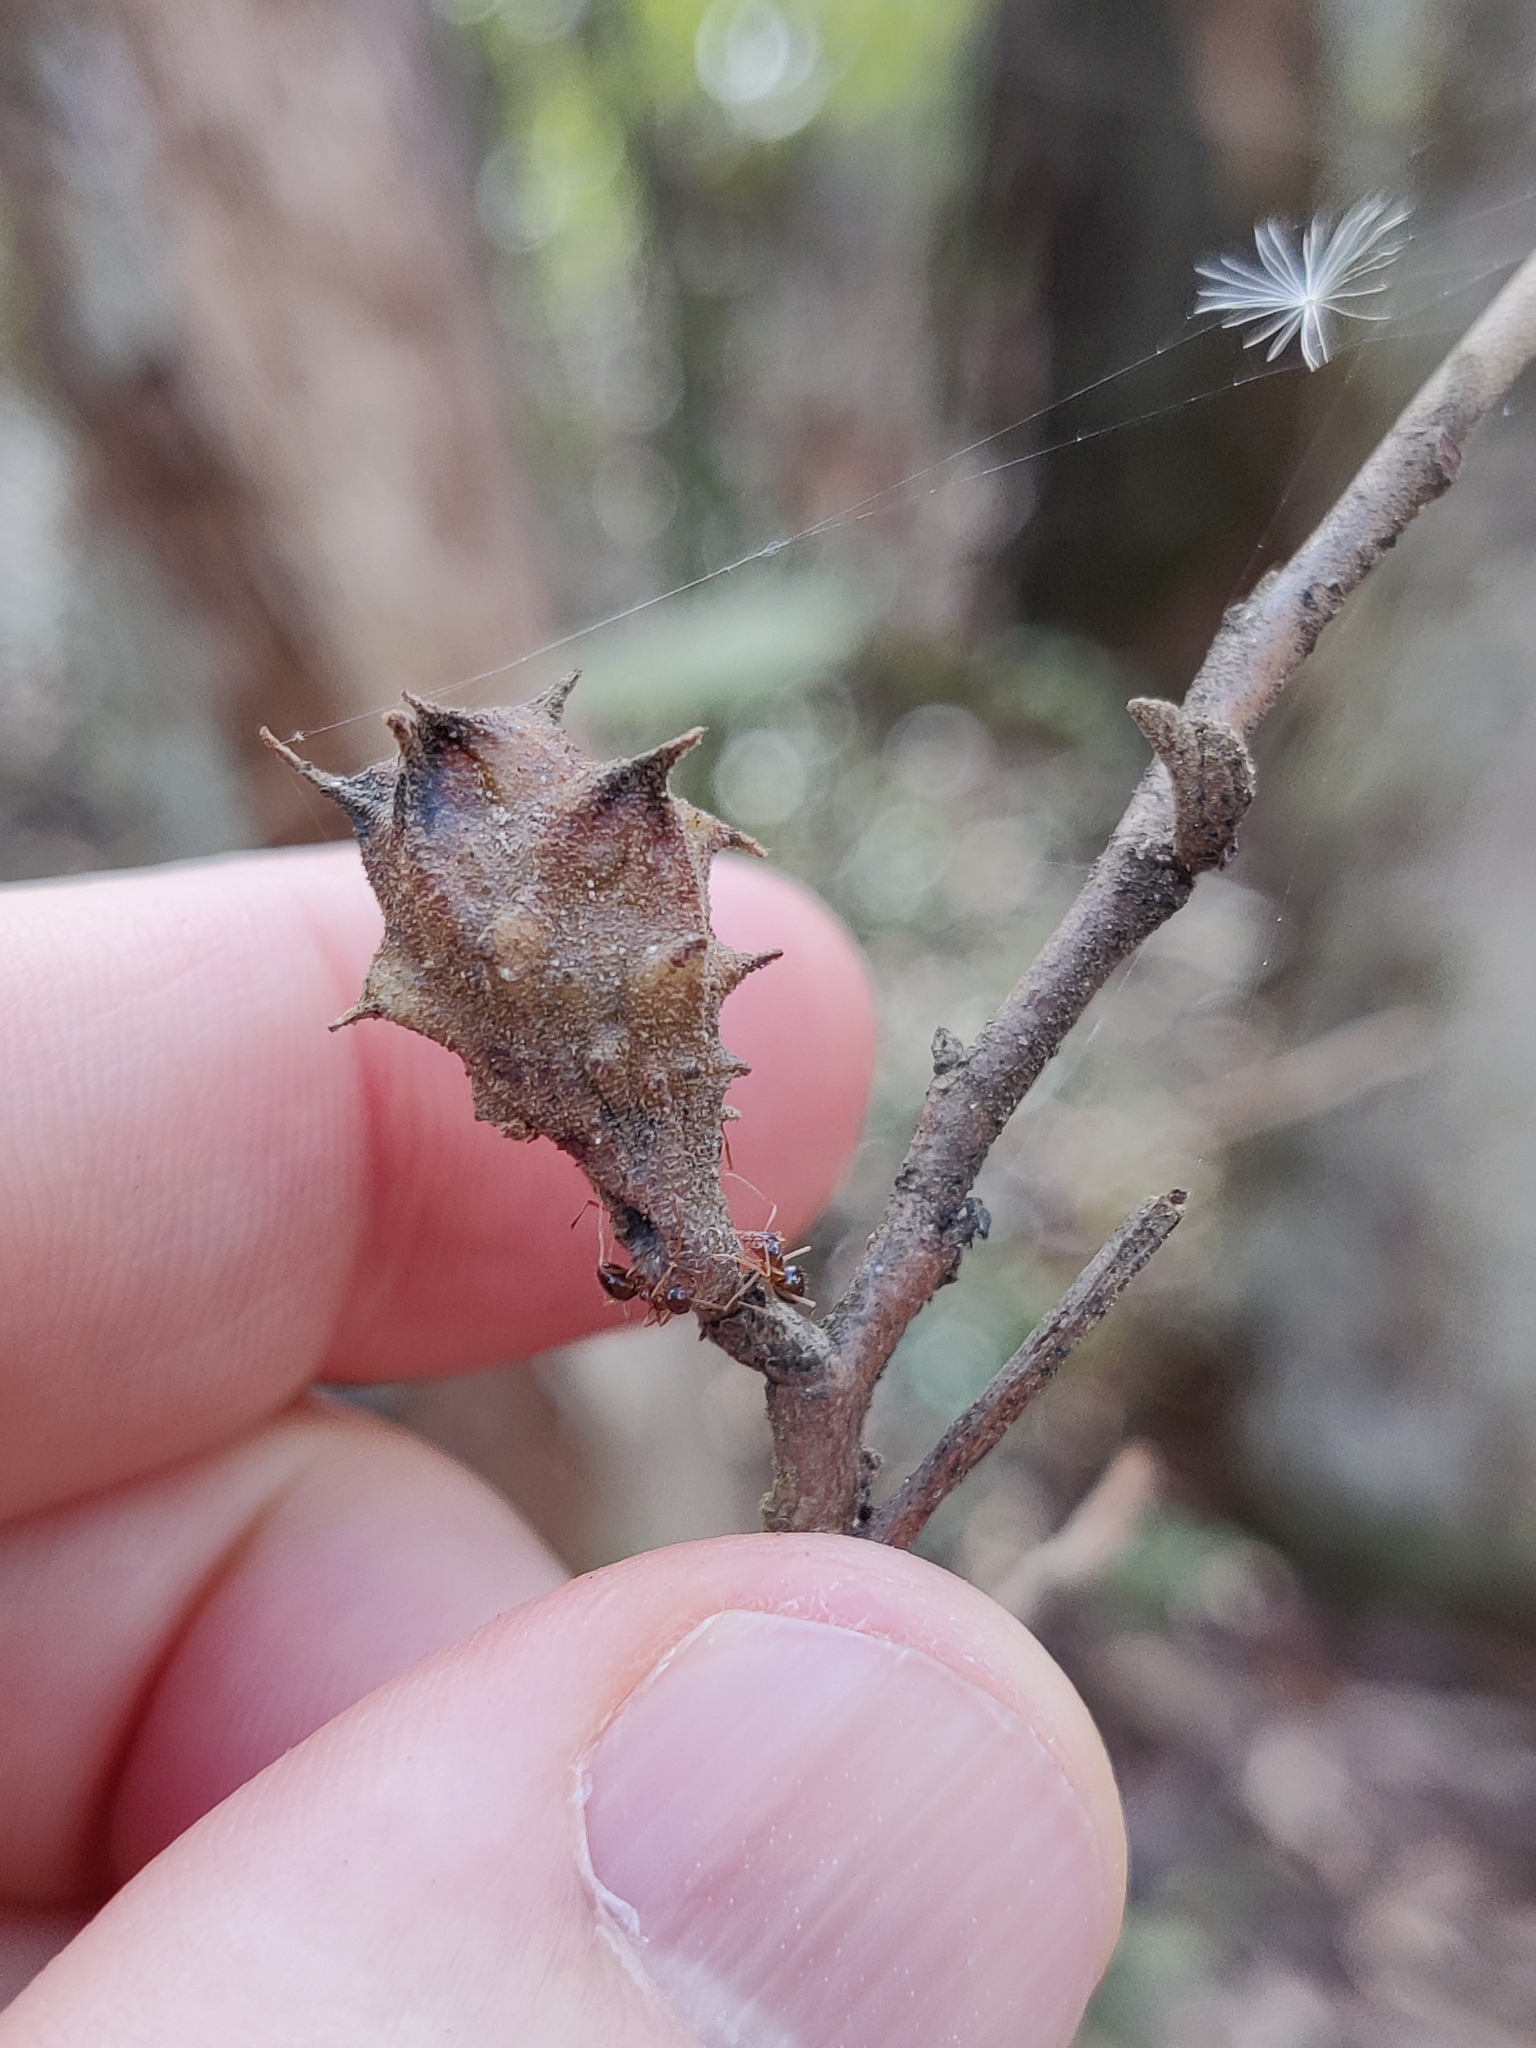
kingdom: Animalia
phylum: Arthropoda
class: Insecta
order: Hemiptera
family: Aphididae
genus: Hamamelistes
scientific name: Hamamelistes spinosus
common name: Witch hazel gall aphid
